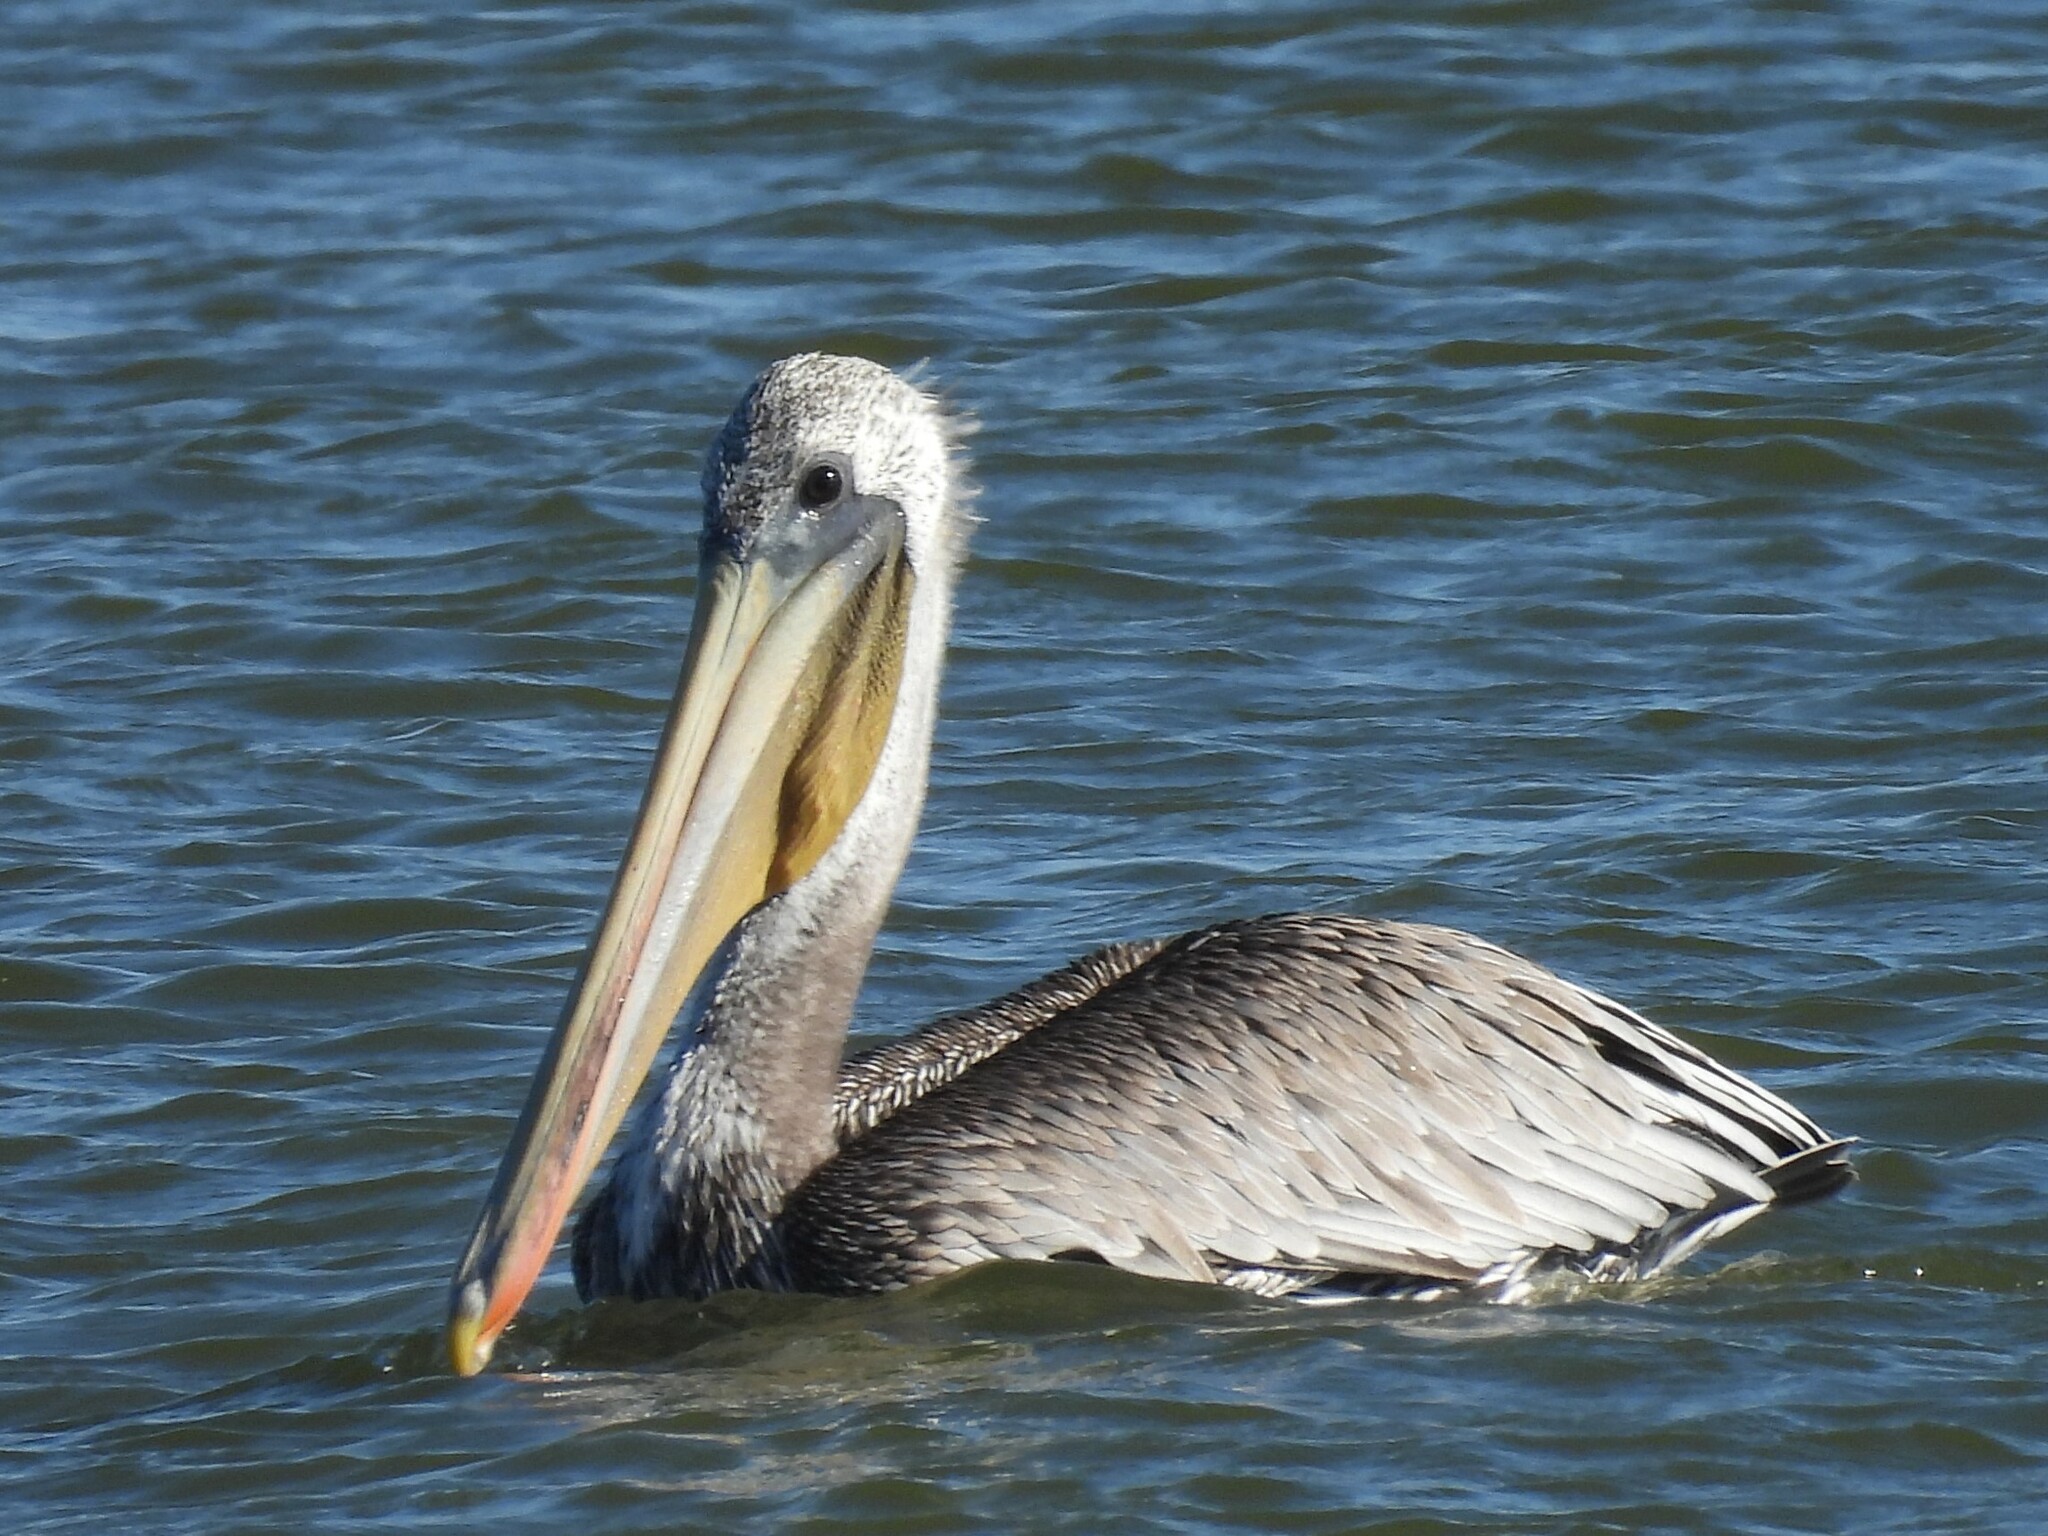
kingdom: Animalia
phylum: Chordata
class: Aves
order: Pelecaniformes
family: Pelecanidae
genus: Pelecanus
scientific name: Pelecanus occidentalis
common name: Brown pelican
